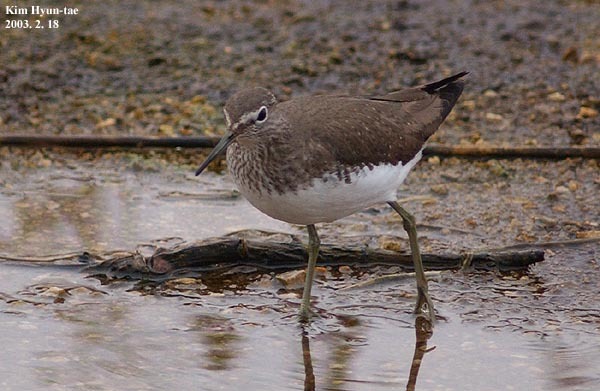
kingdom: Animalia
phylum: Chordata
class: Aves
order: Charadriiformes
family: Scolopacidae
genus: Tringa
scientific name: Tringa ochropus
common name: Green sandpiper
